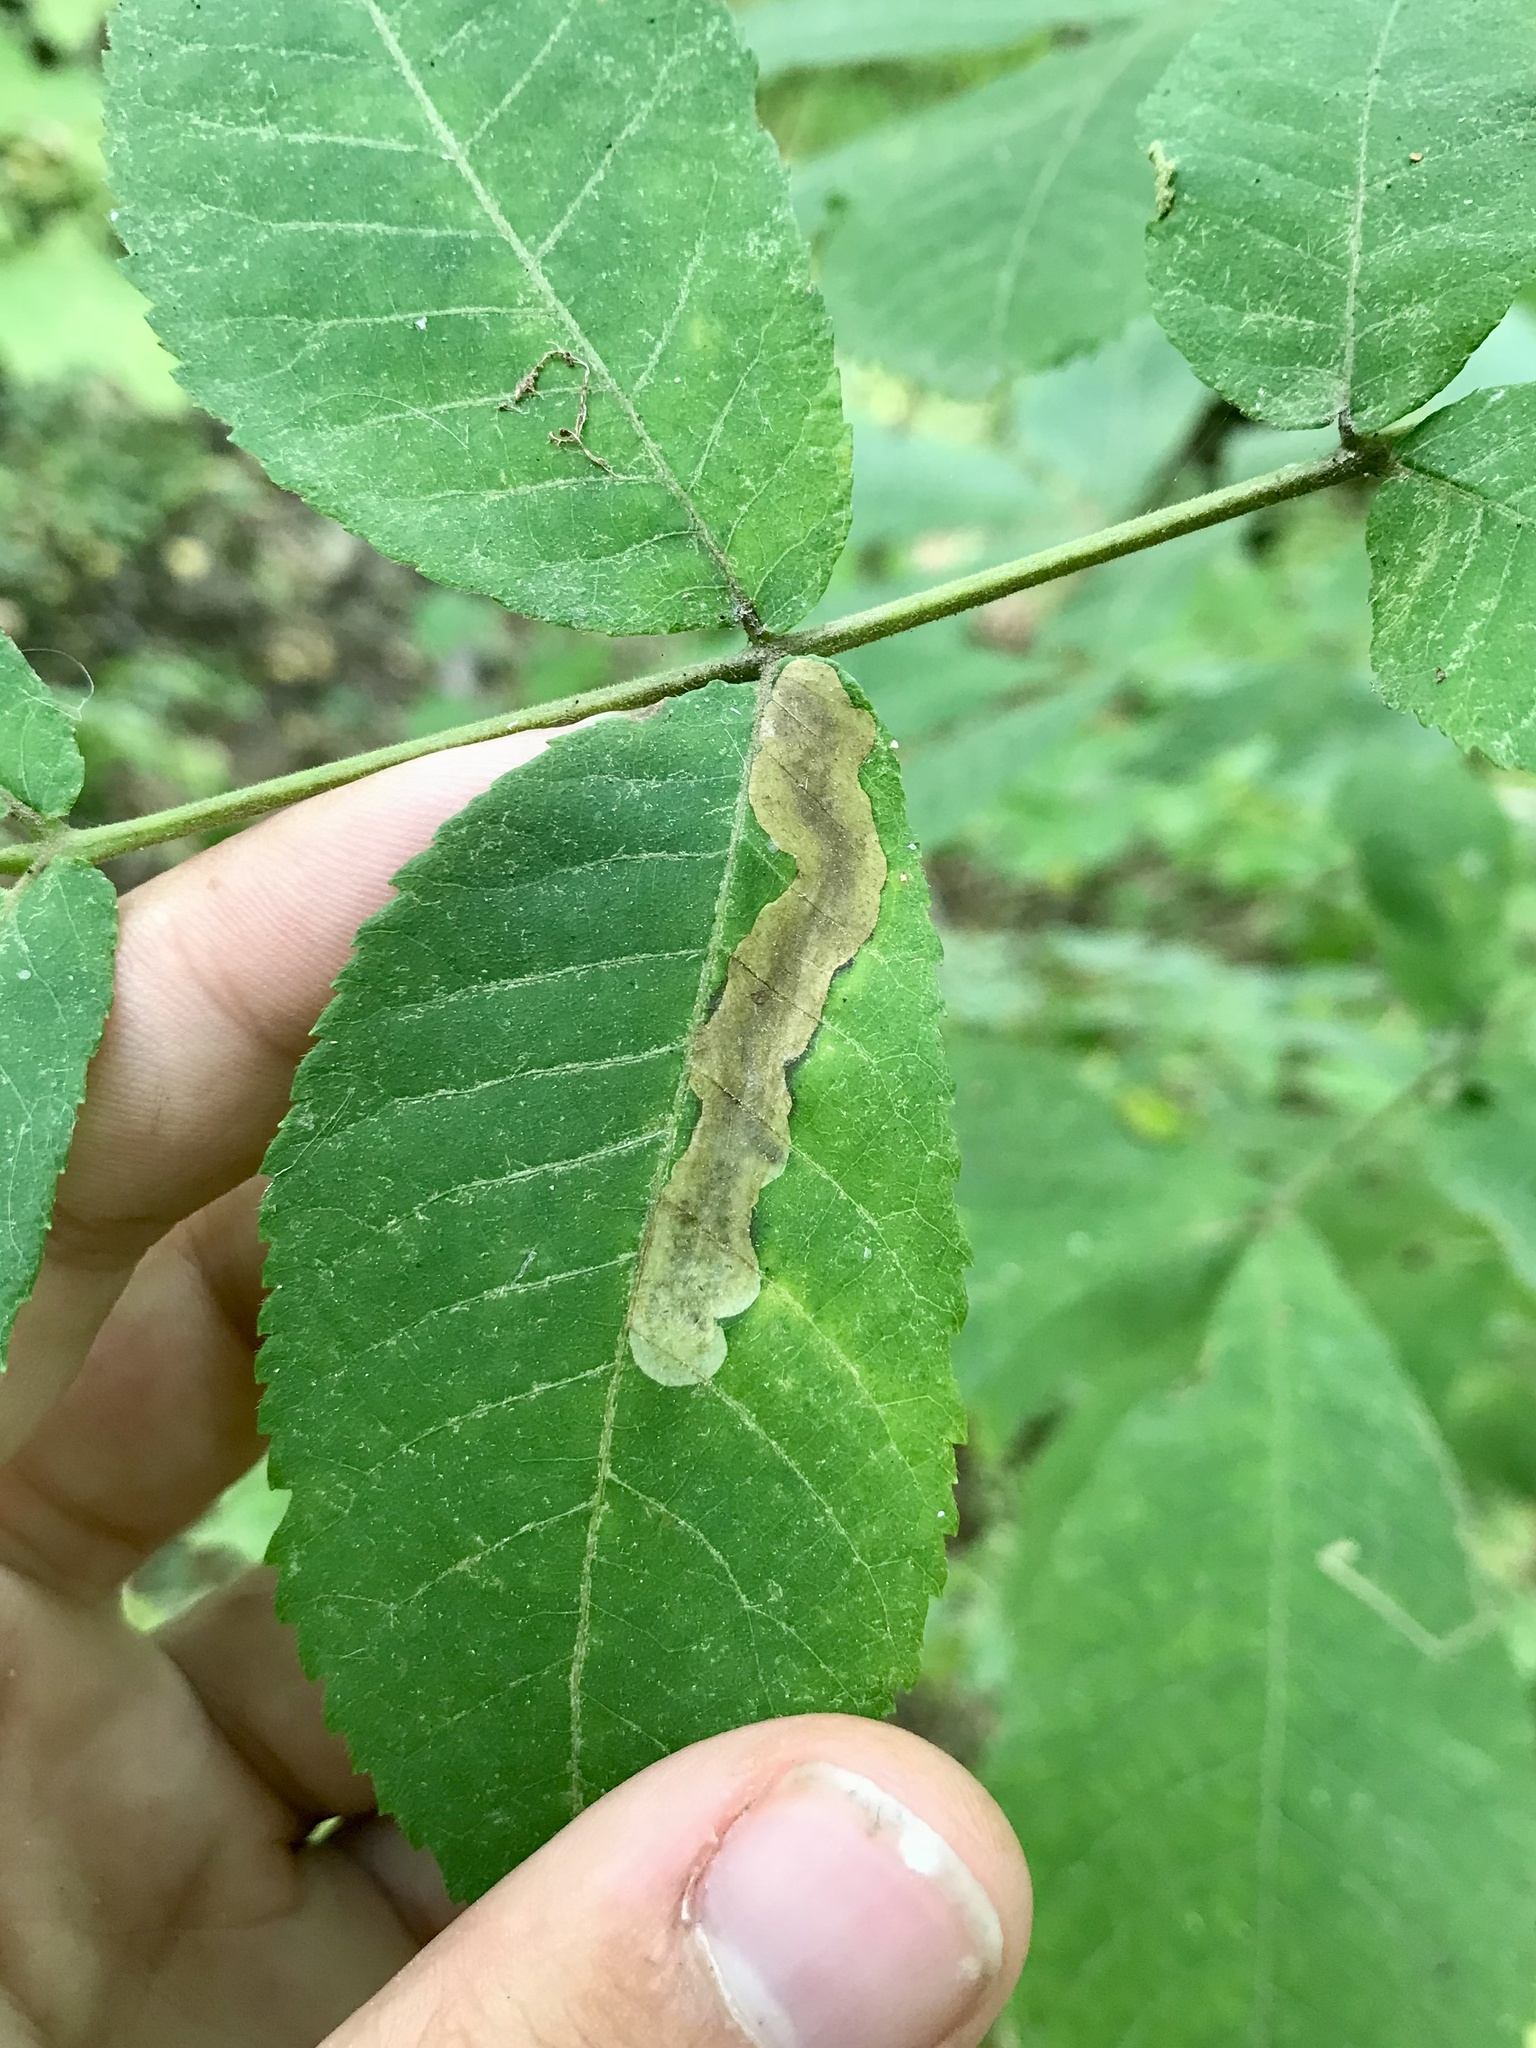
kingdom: Animalia
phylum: Arthropoda
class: Insecta
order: Lepidoptera
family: Gracillariidae
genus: Cameraria
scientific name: Cameraria caryaefoliella
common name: Pecan leafminer moth
